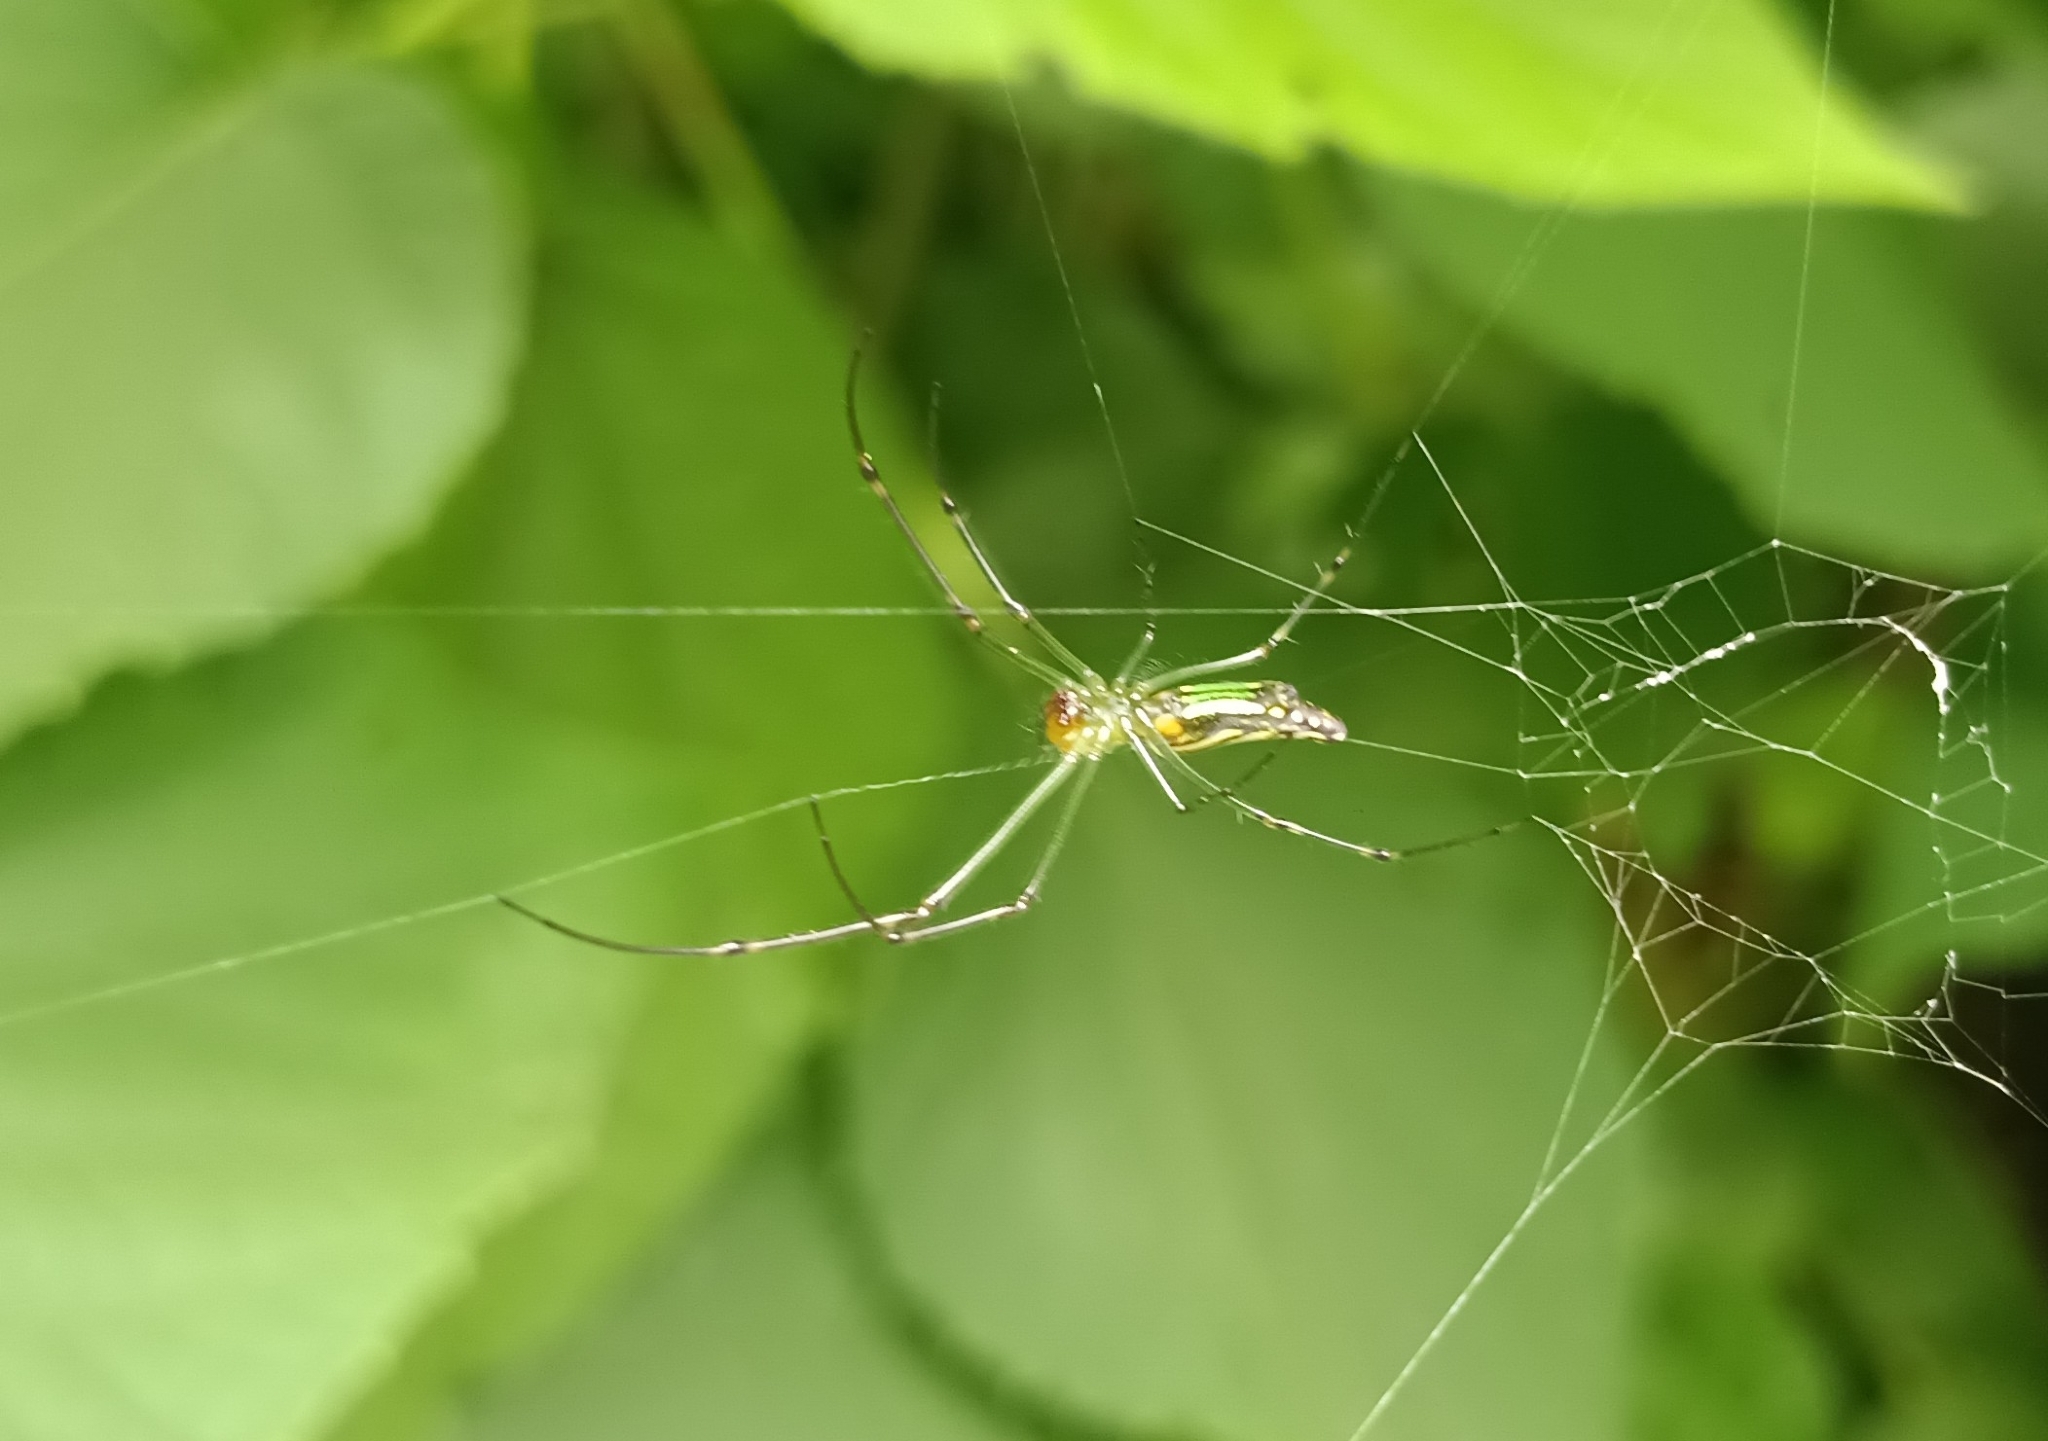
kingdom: Animalia
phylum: Arthropoda
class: Arachnida
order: Araneae
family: Tetragnathidae
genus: Leucauge
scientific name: Leucauge decorata
